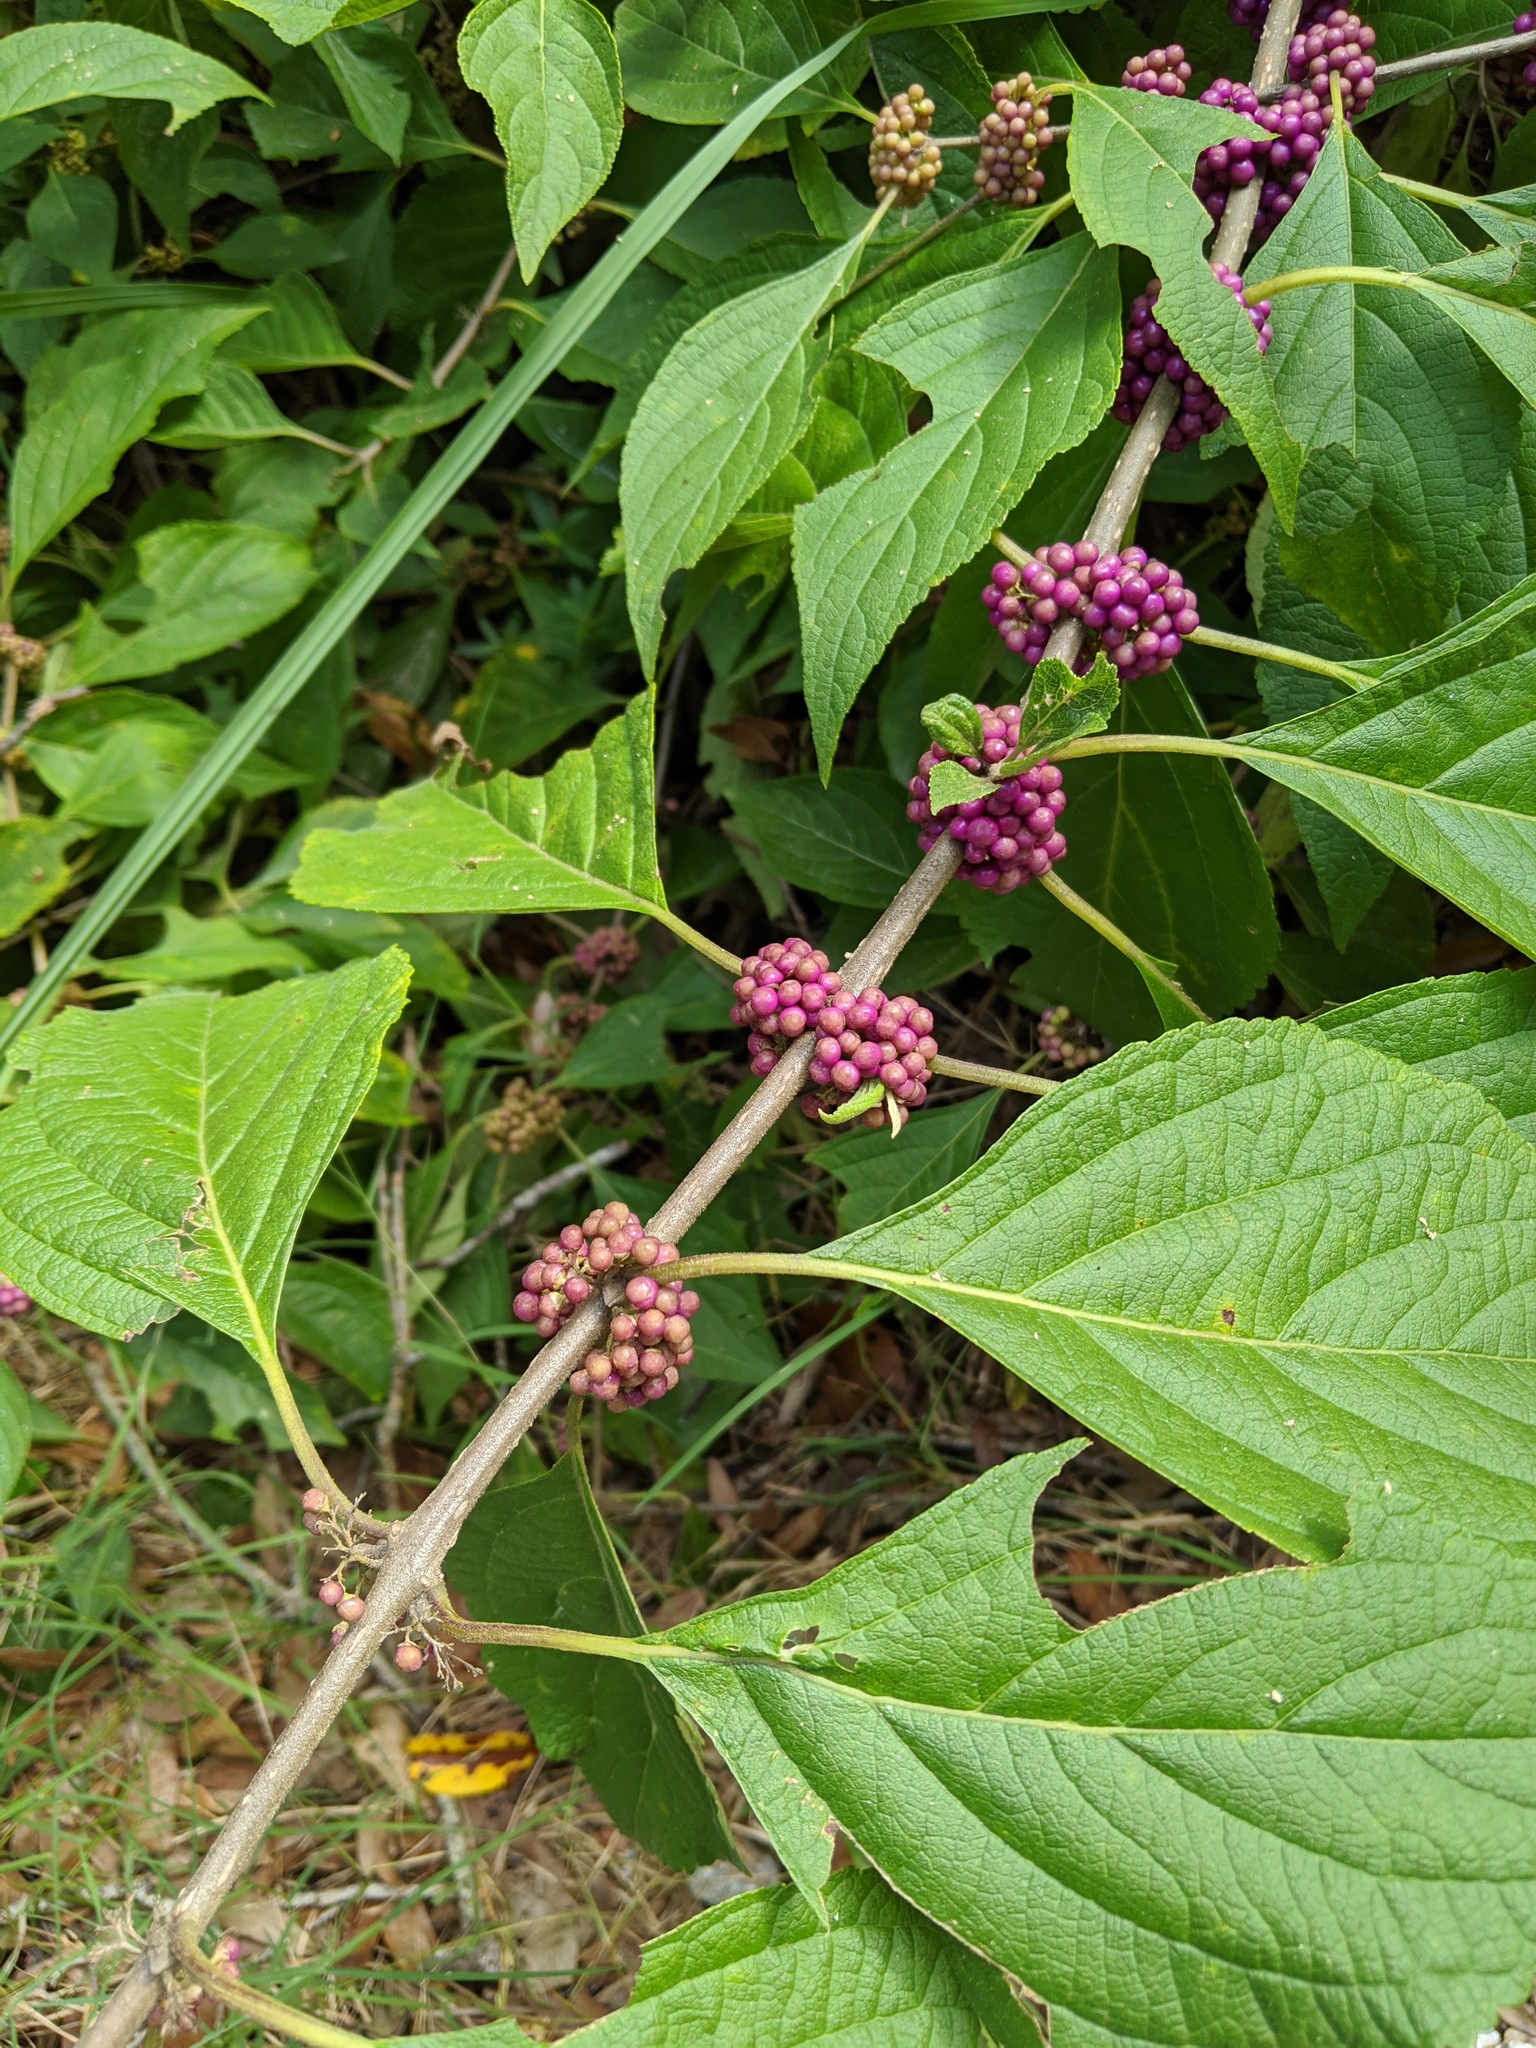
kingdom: Plantae
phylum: Tracheophyta
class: Magnoliopsida
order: Lamiales
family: Lamiaceae
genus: Callicarpa
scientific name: Callicarpa americana
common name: American beautyberry
